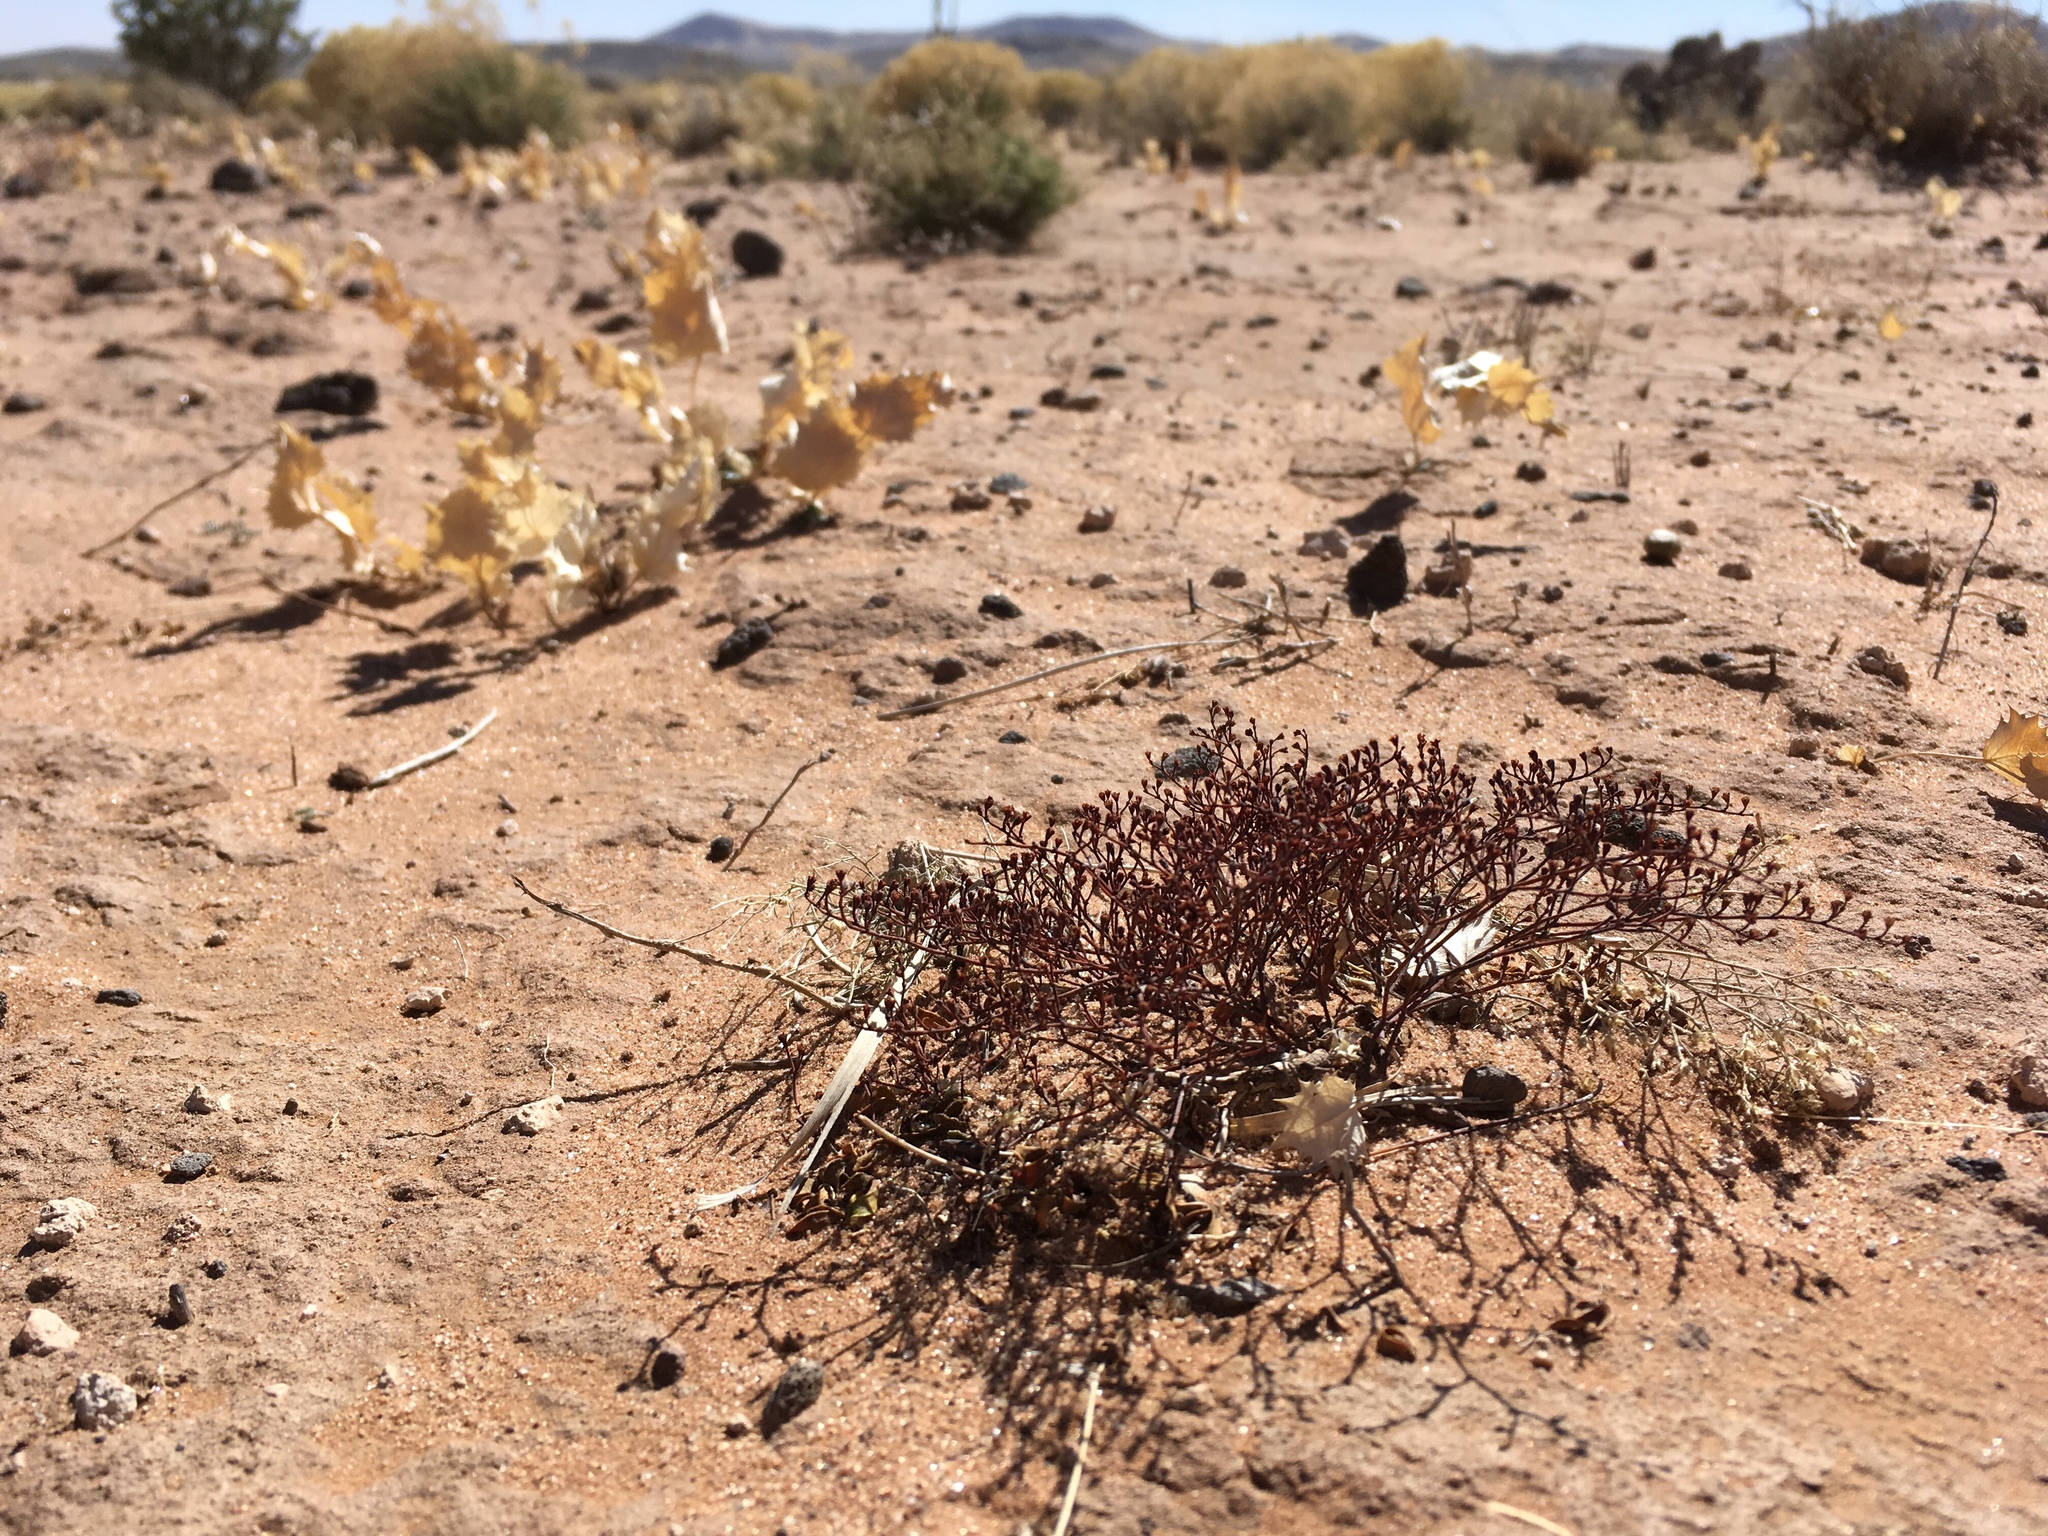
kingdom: Plantae
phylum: Tracheophyta
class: Magnoliopsida
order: Caryophyllales
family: Polygonaceae
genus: Eriogonum
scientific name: Eriogonum rotundifolium
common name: Round-leaf wild buckwheat
